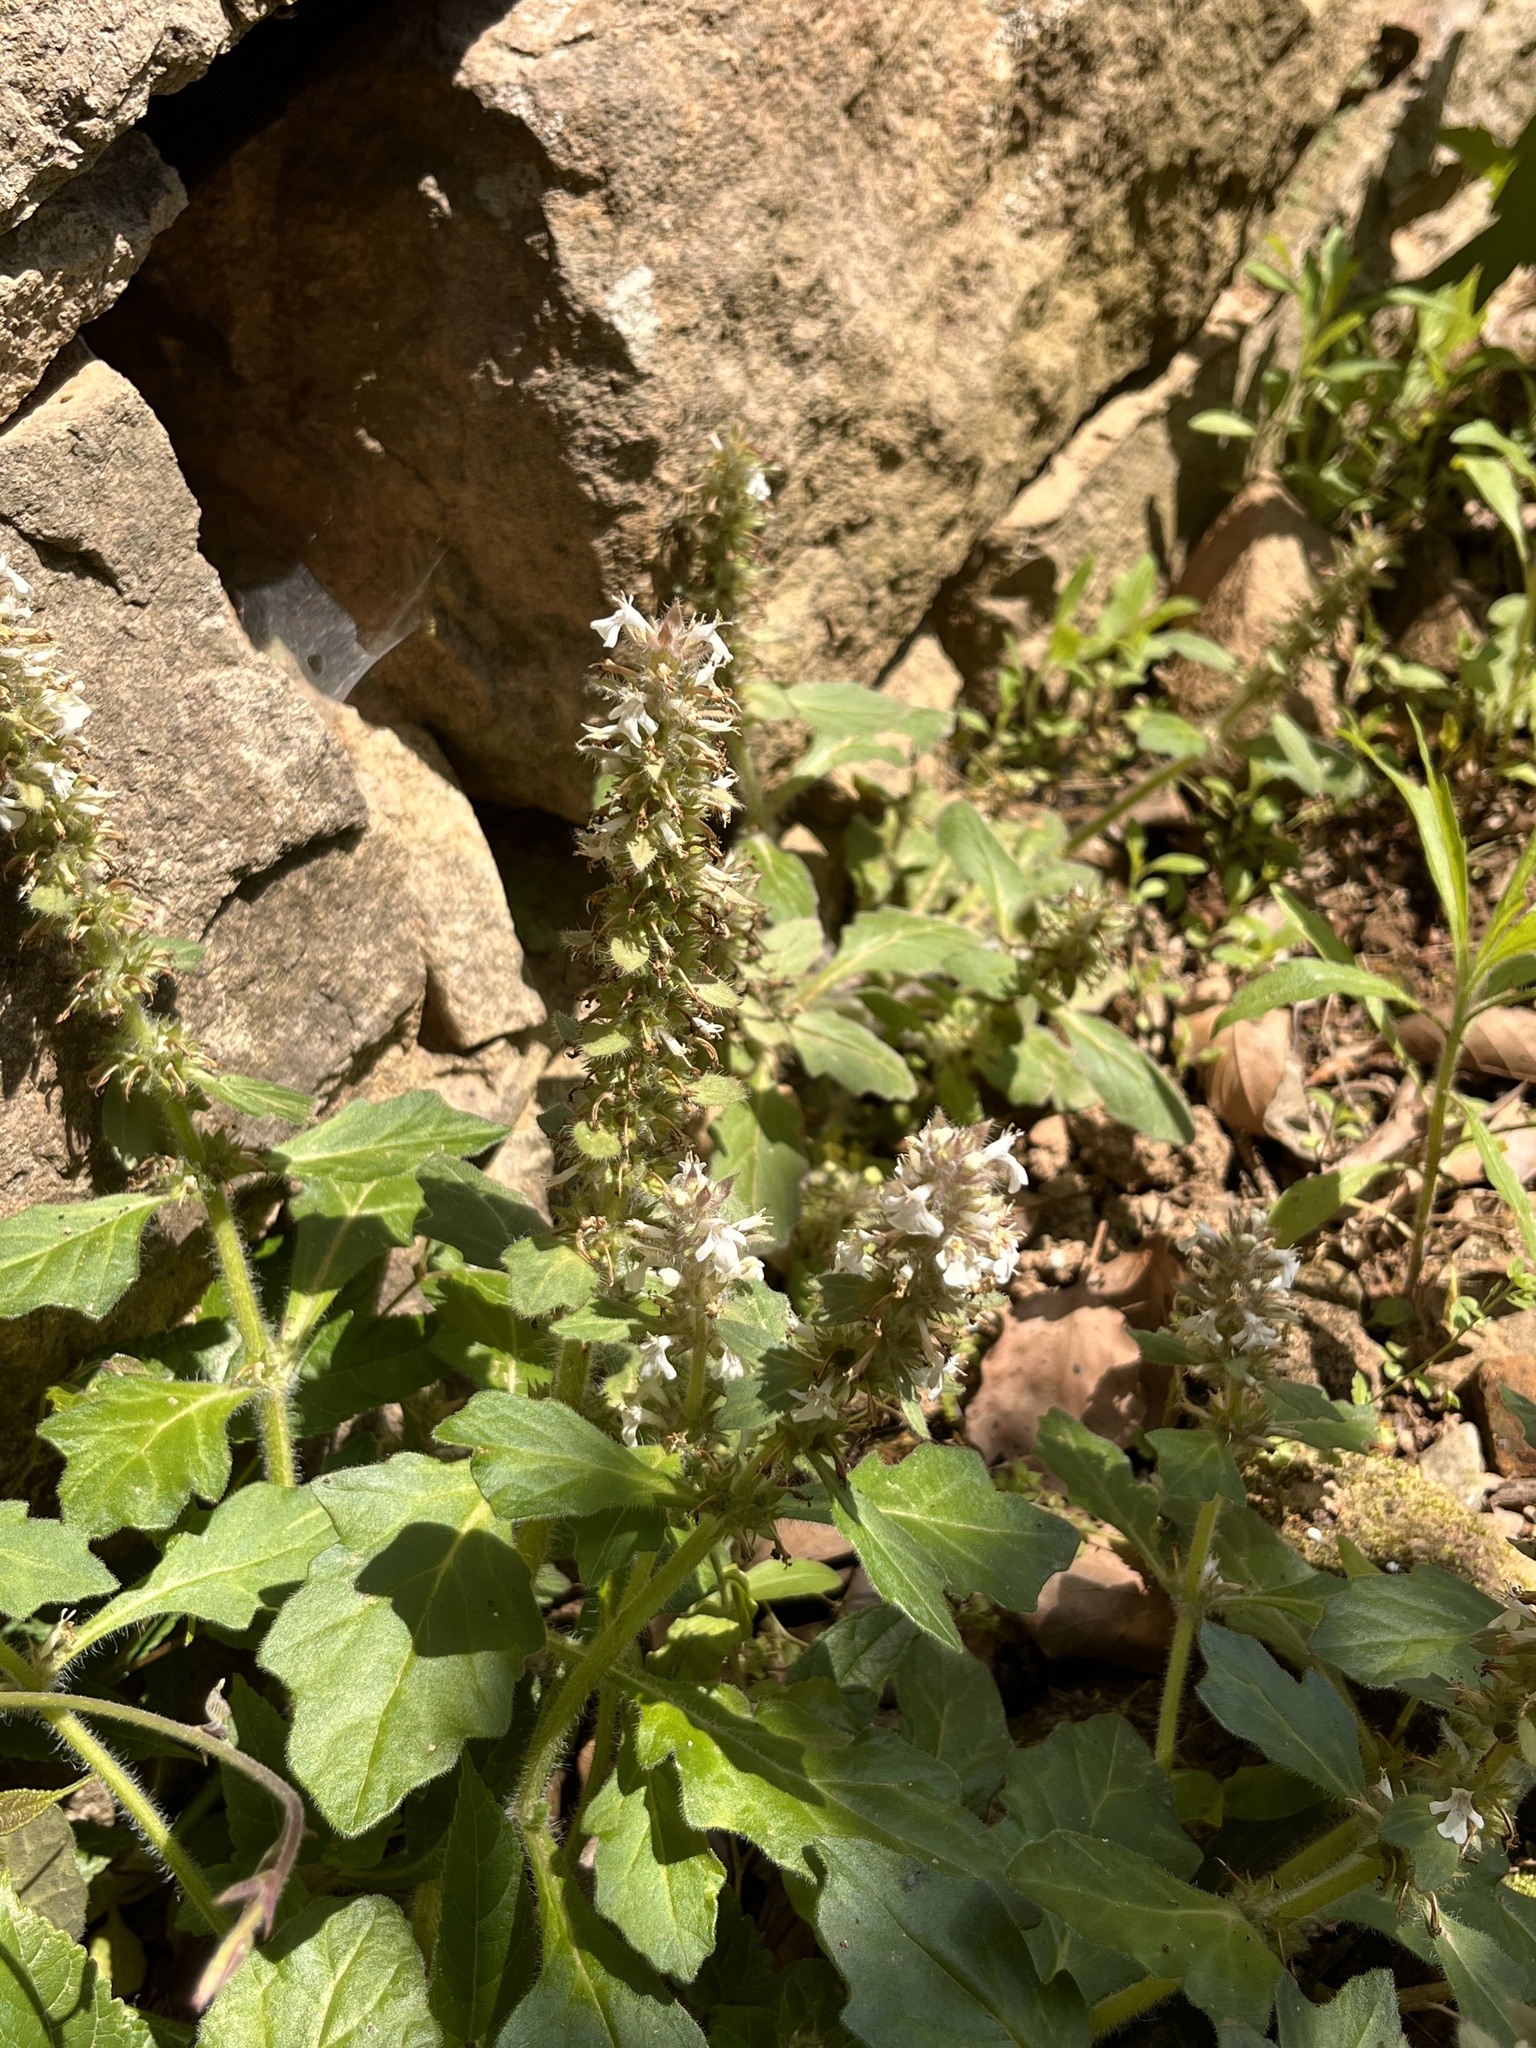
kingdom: Plantae
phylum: Tracheophyta
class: Magnoliopsida
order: Lamiales
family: Lamiaceae
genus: Ajuga
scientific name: Ajuga nipponensis
